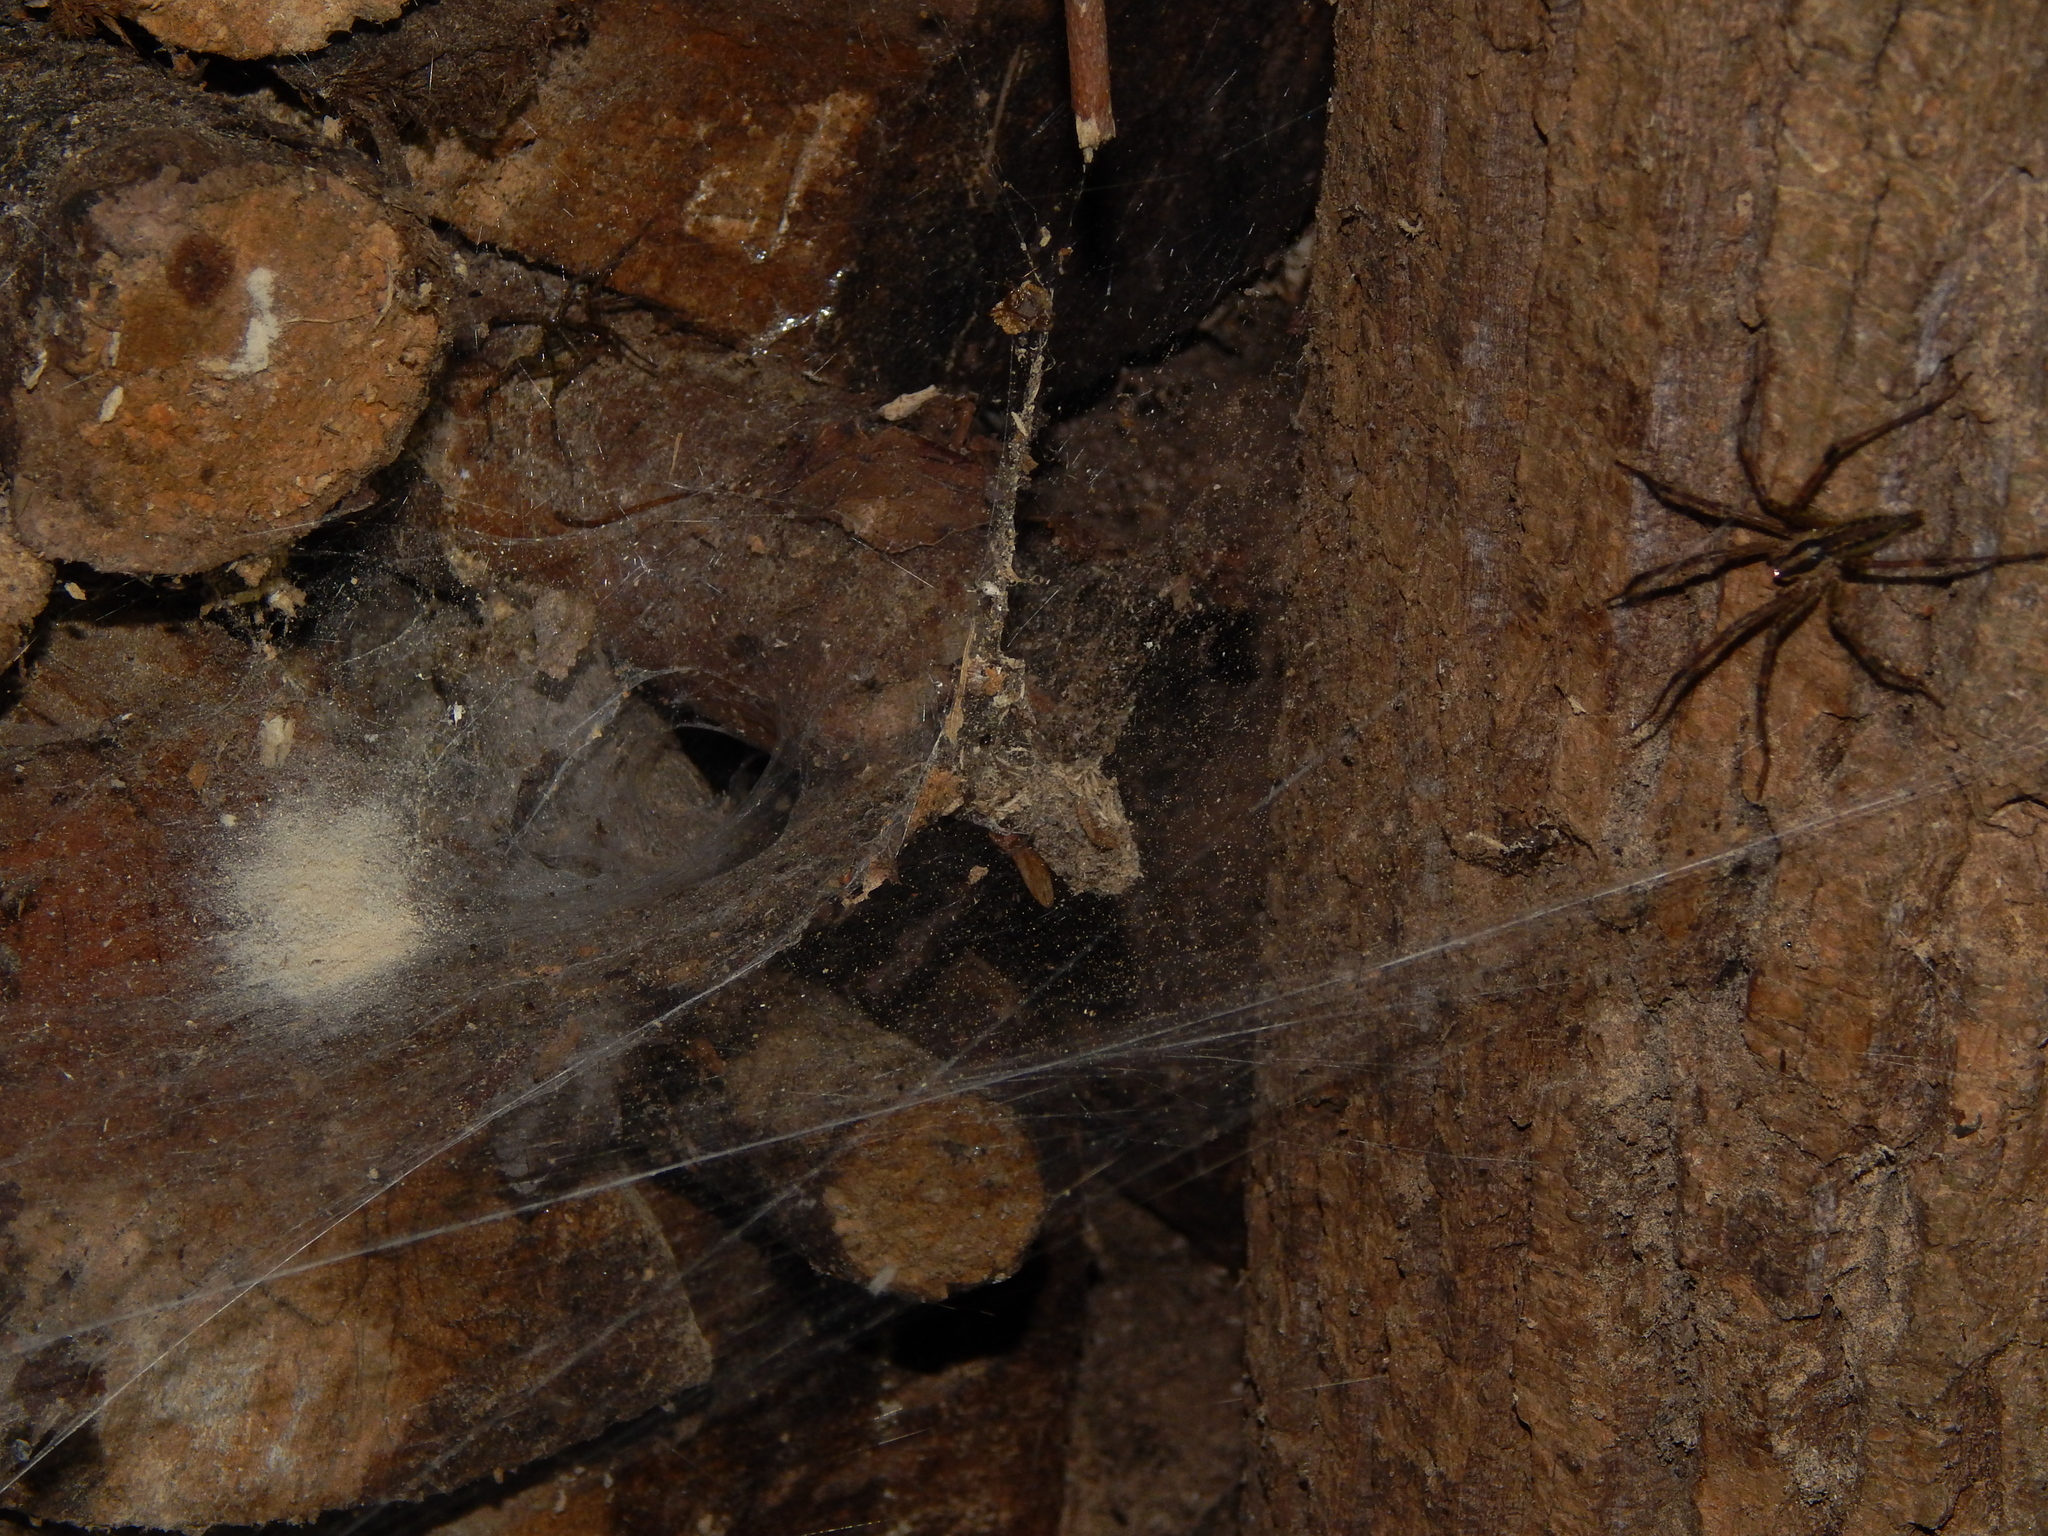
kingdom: Animalia
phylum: Arthropoda
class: Arachnida
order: Araneae
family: Agelenidae
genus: Agelenopsis
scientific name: Agelenopsis
